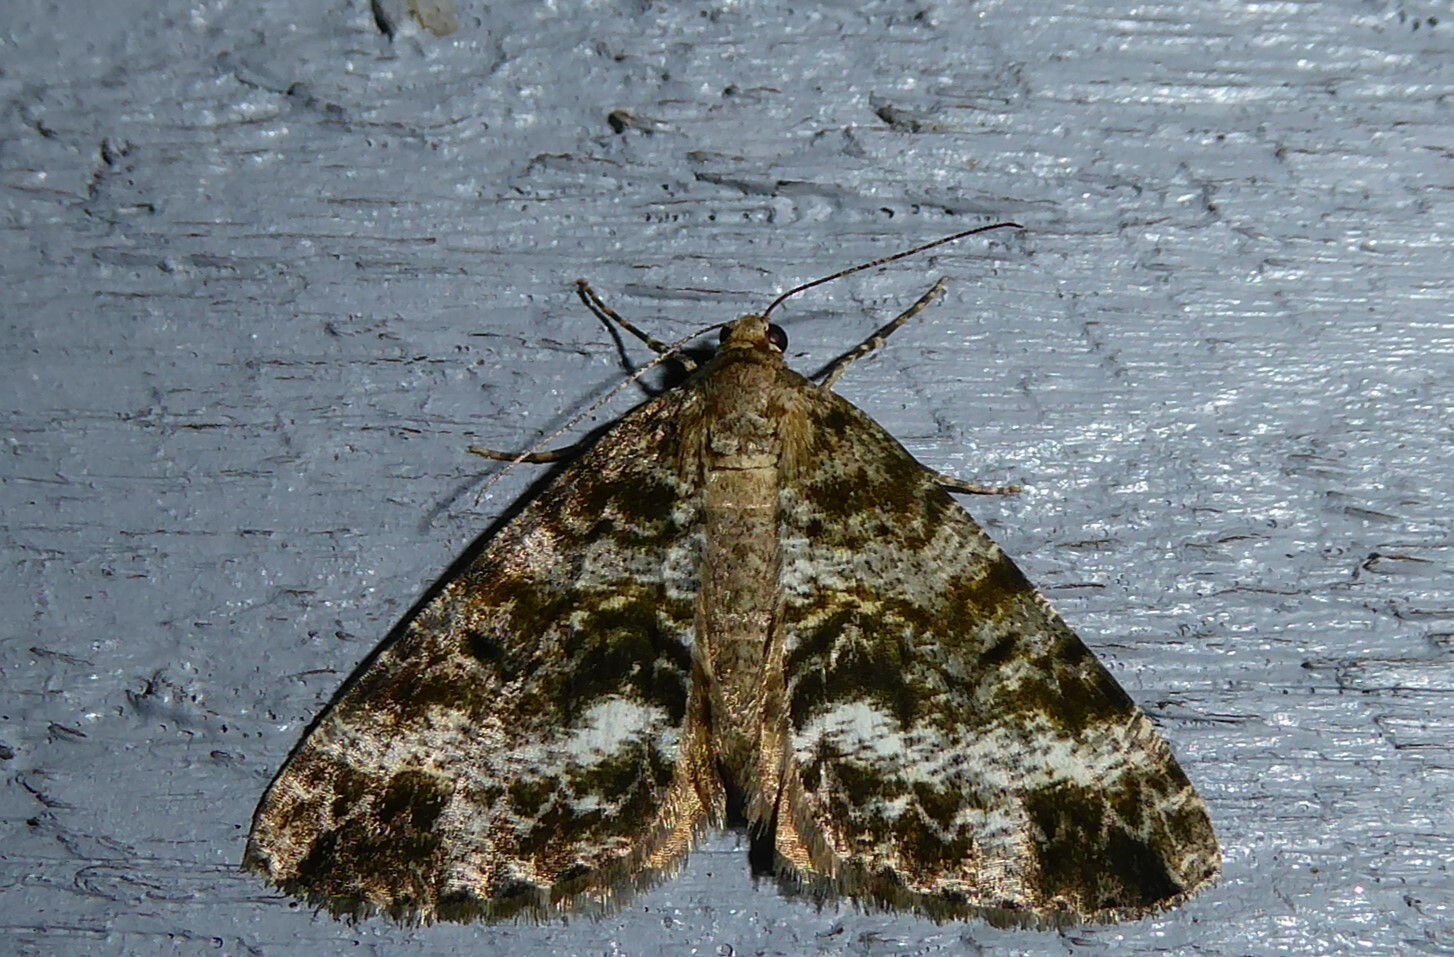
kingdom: Animalia
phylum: Arthropoda
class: Insecta
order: Lepidoptera
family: Geometridae
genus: Pseudocoremia
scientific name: Pseudocoremia lactiflua
